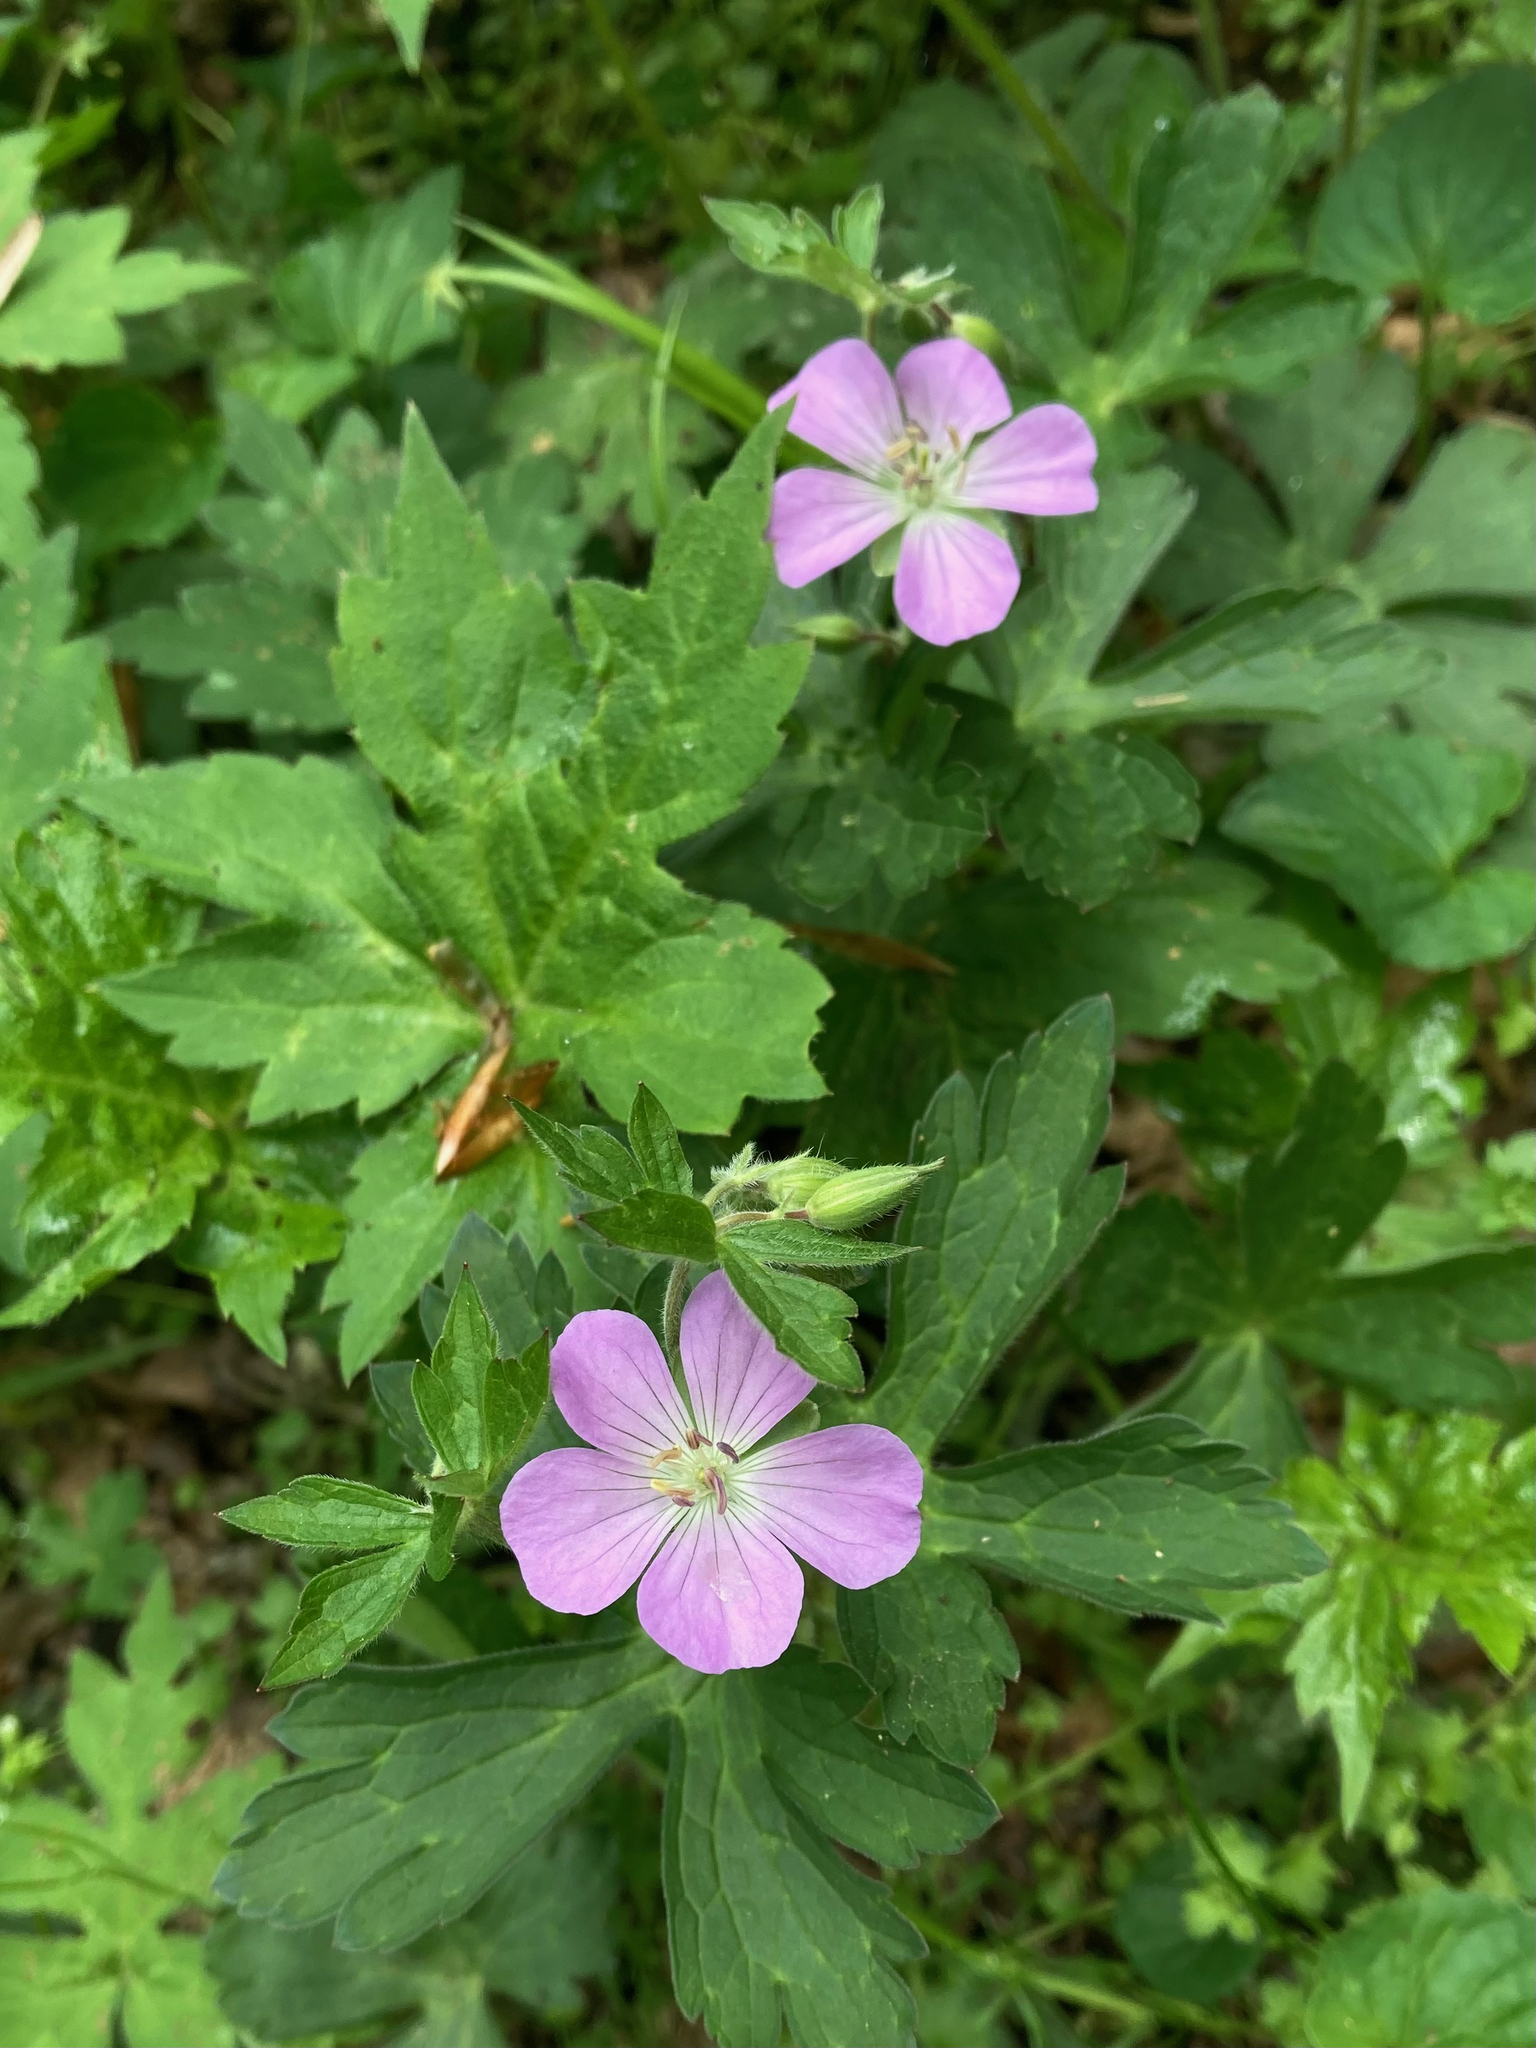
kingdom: Plantae
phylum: Tracheophyta
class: Magnoliopsida
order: Geraniales
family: Geraniaceae
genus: Geranium
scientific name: Geranium maculatum
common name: Spotted geranium
